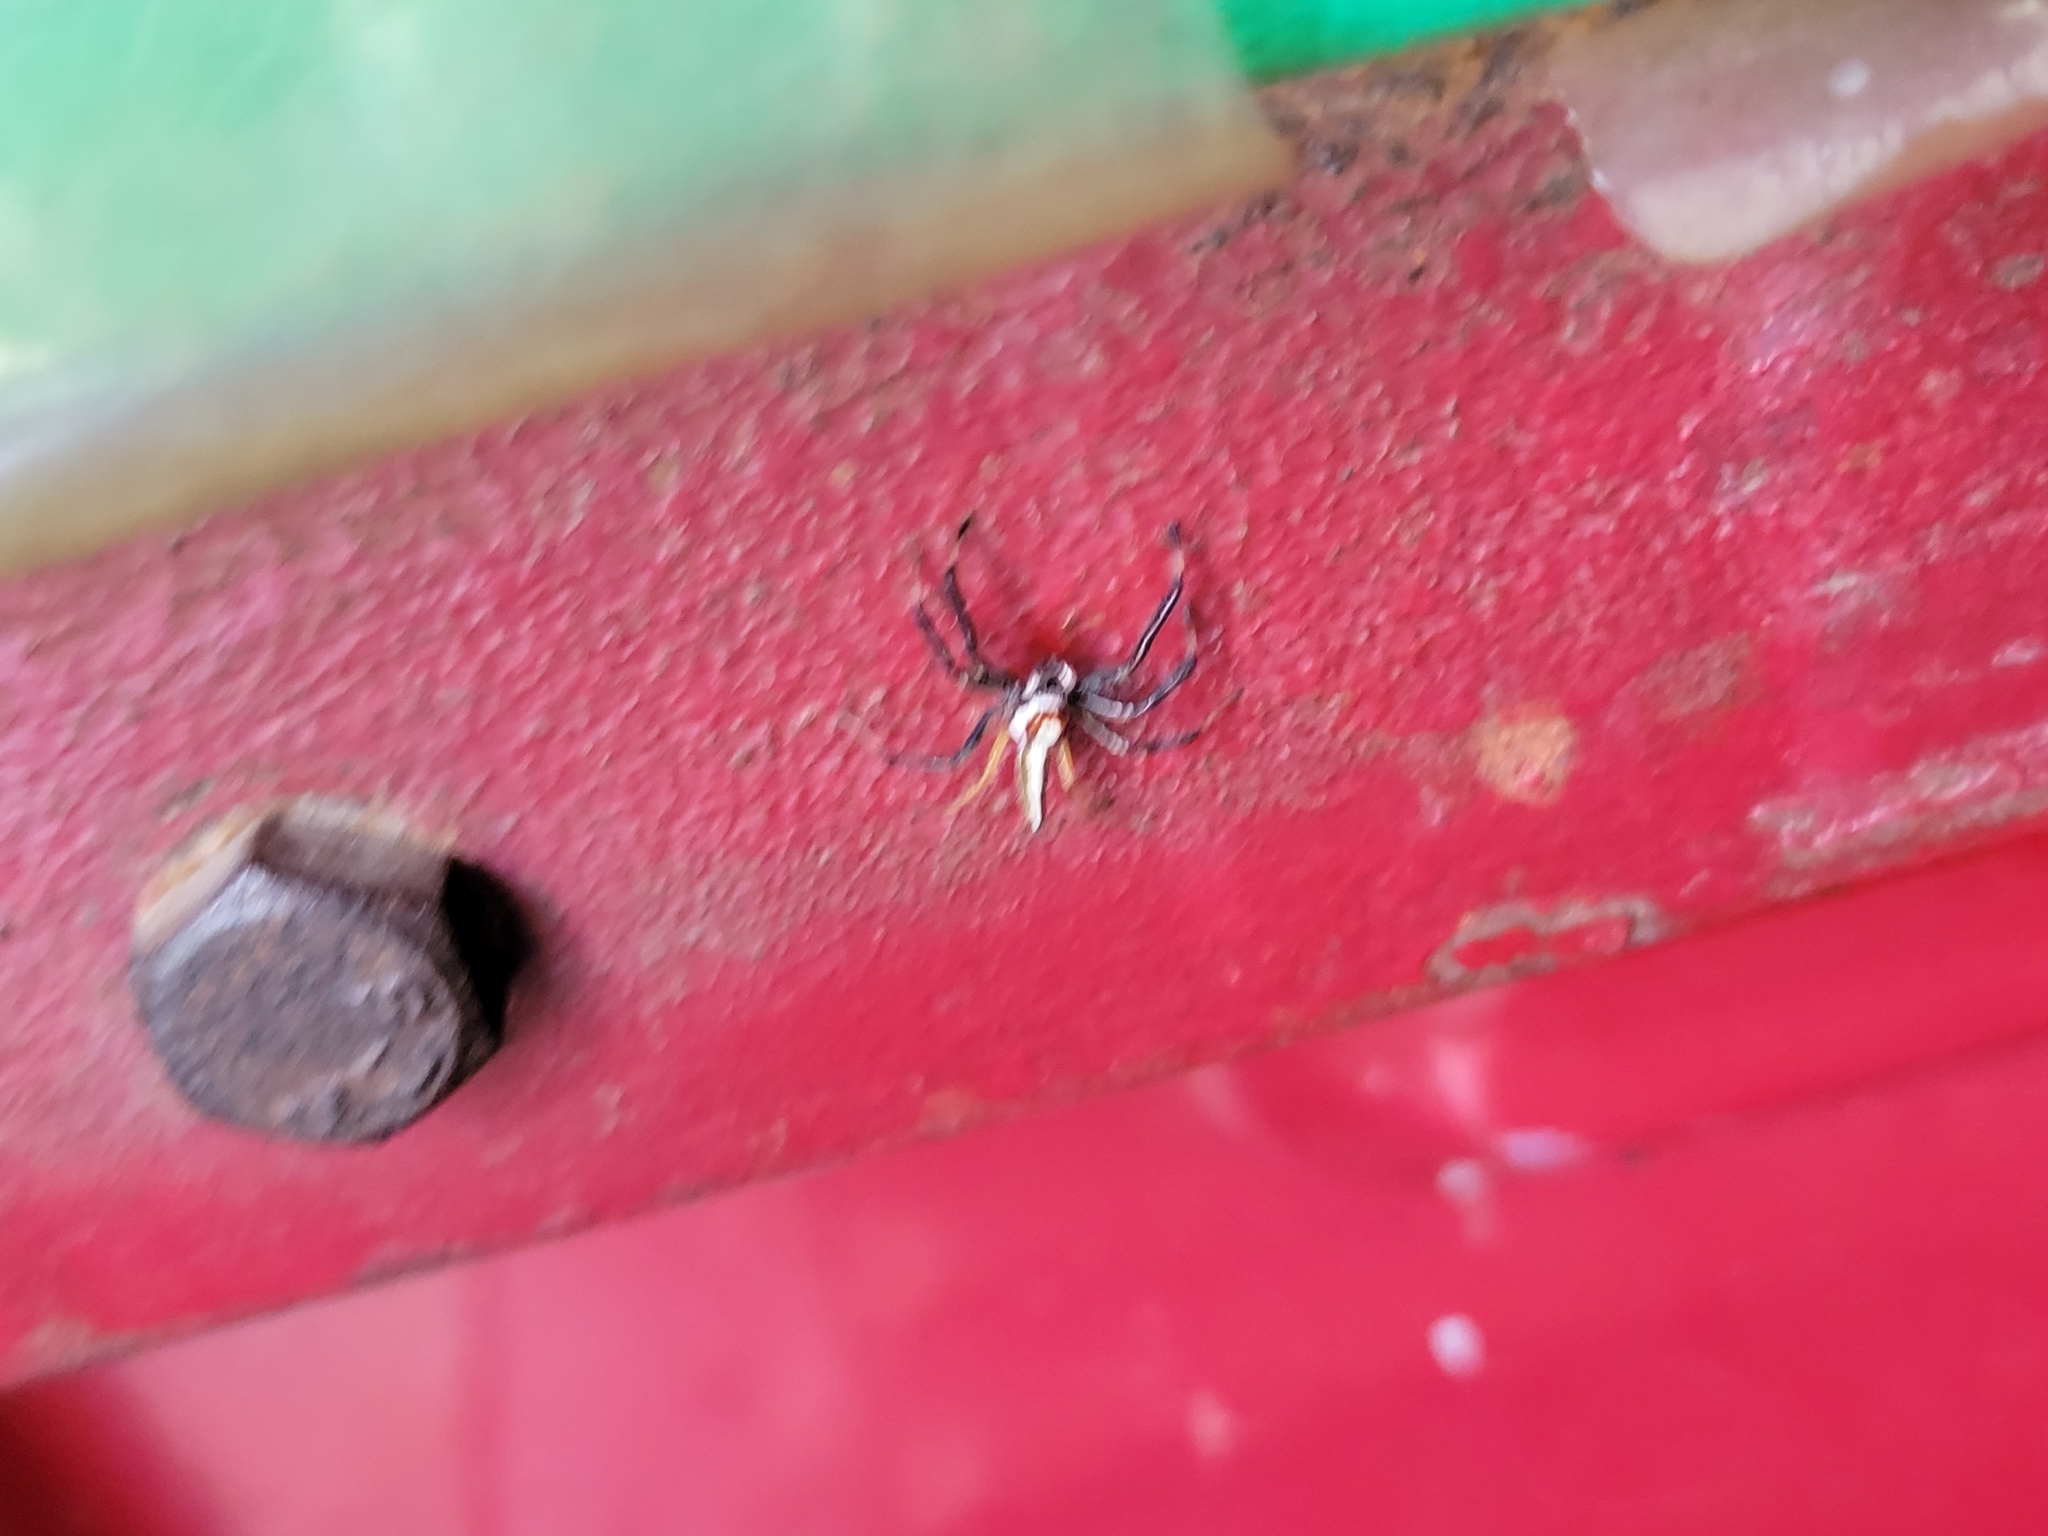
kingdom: Animalia
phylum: Arthropoda
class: Arachnida
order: Araneae
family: Salticidae
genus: Telamonia
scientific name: Telamonia dimidiata
